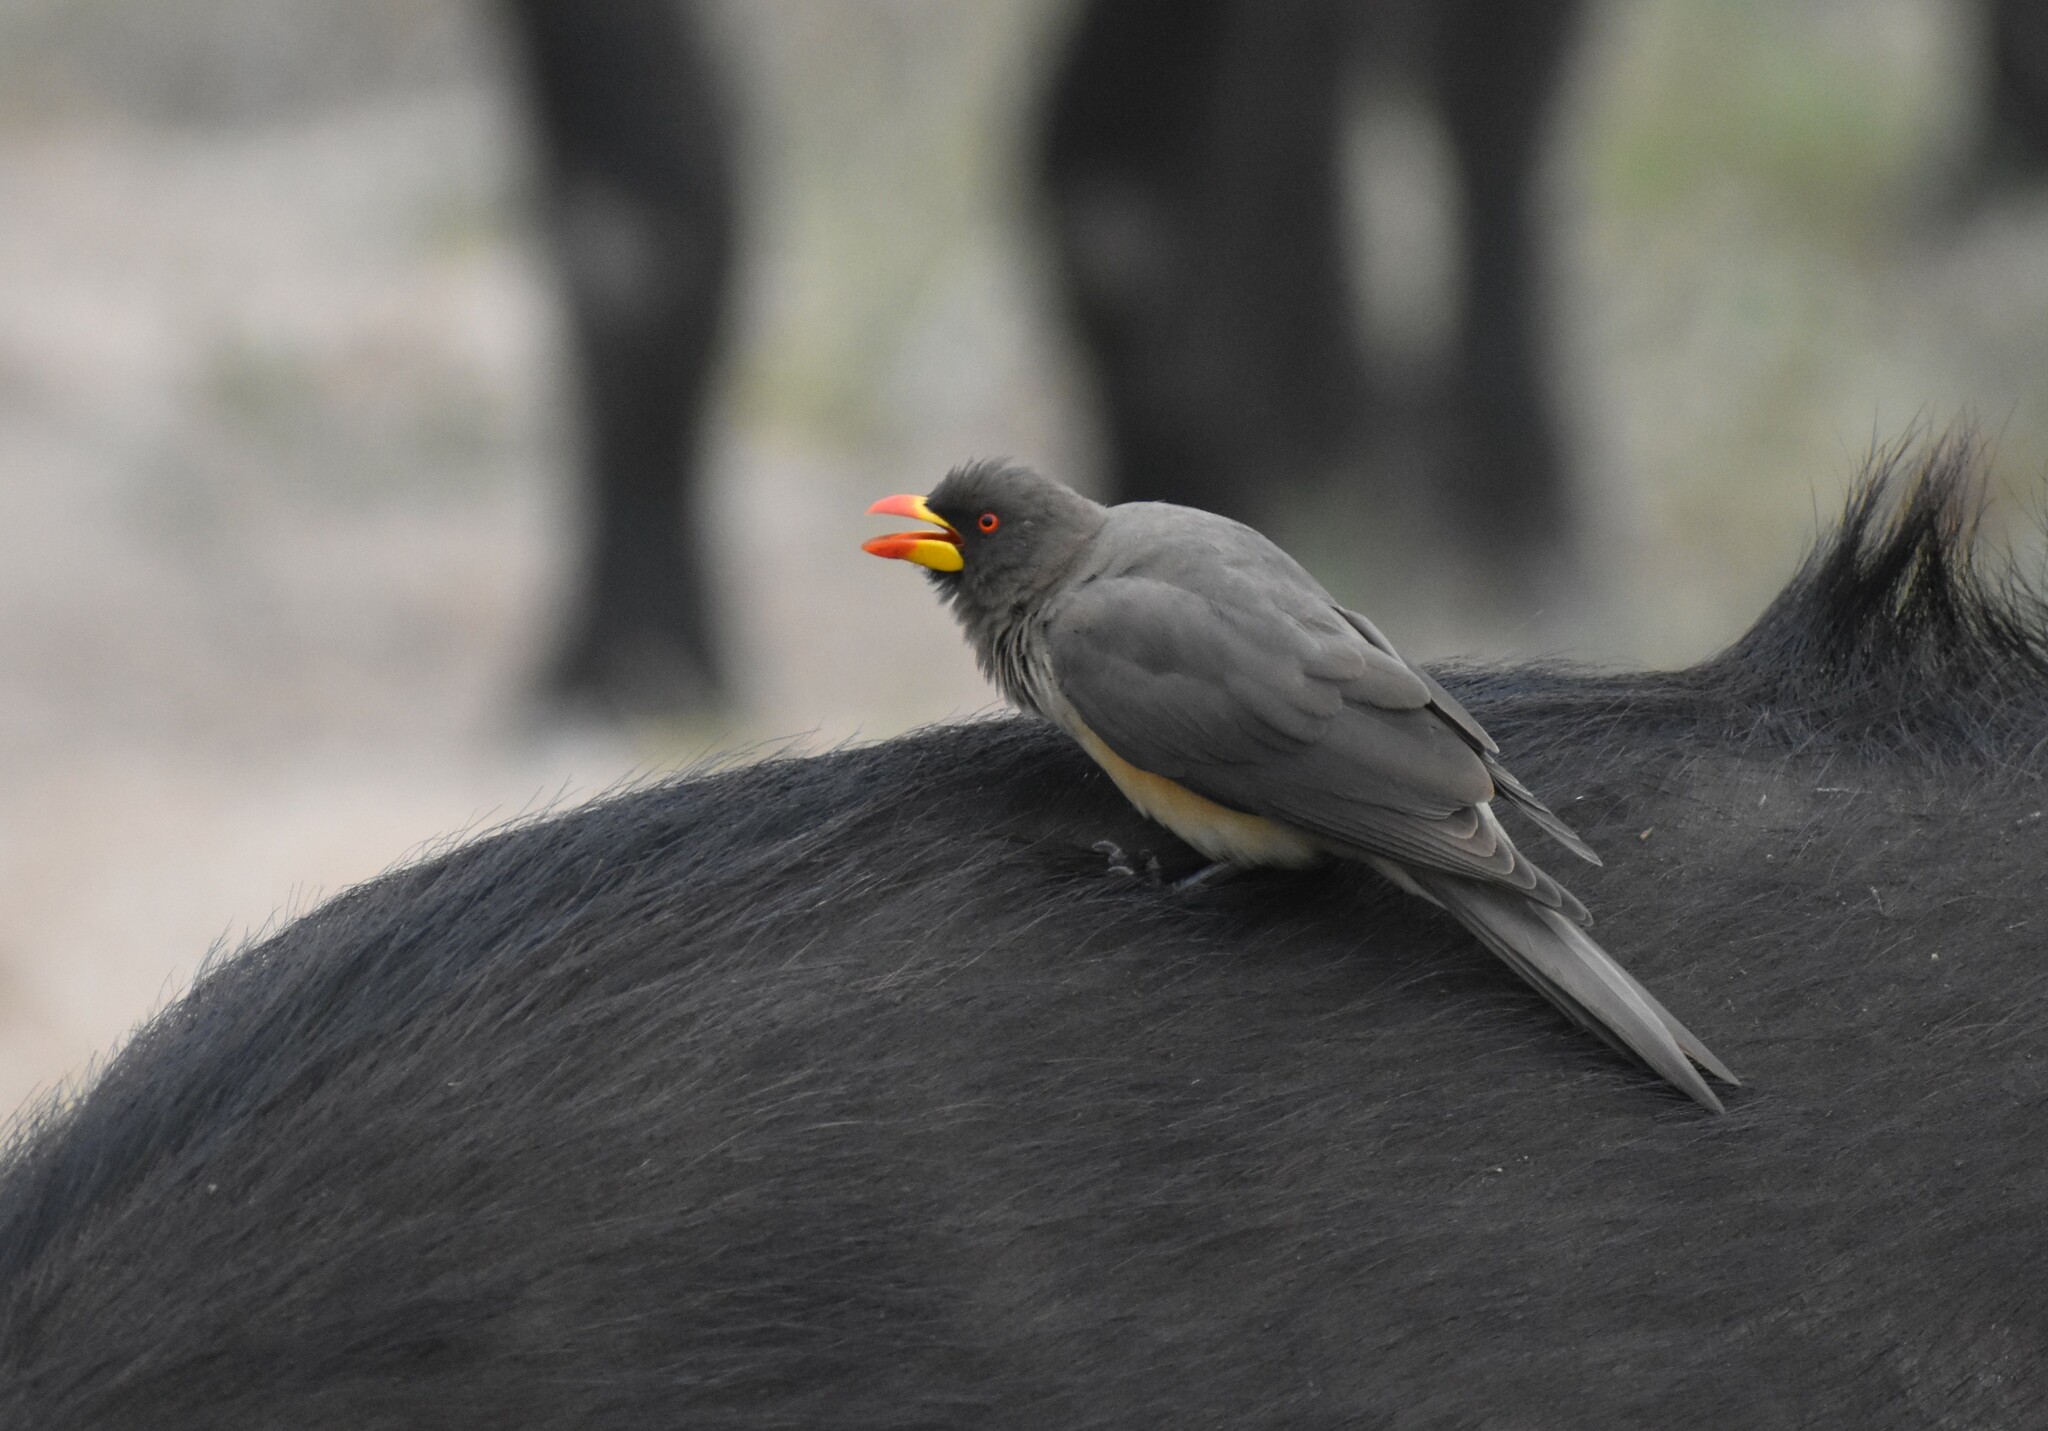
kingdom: Animalia
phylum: Chordata
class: Aves
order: Passeriformes
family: Buphagidae
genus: Buphagus
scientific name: Buphagus africanus
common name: Yellow-billed oxpecker
